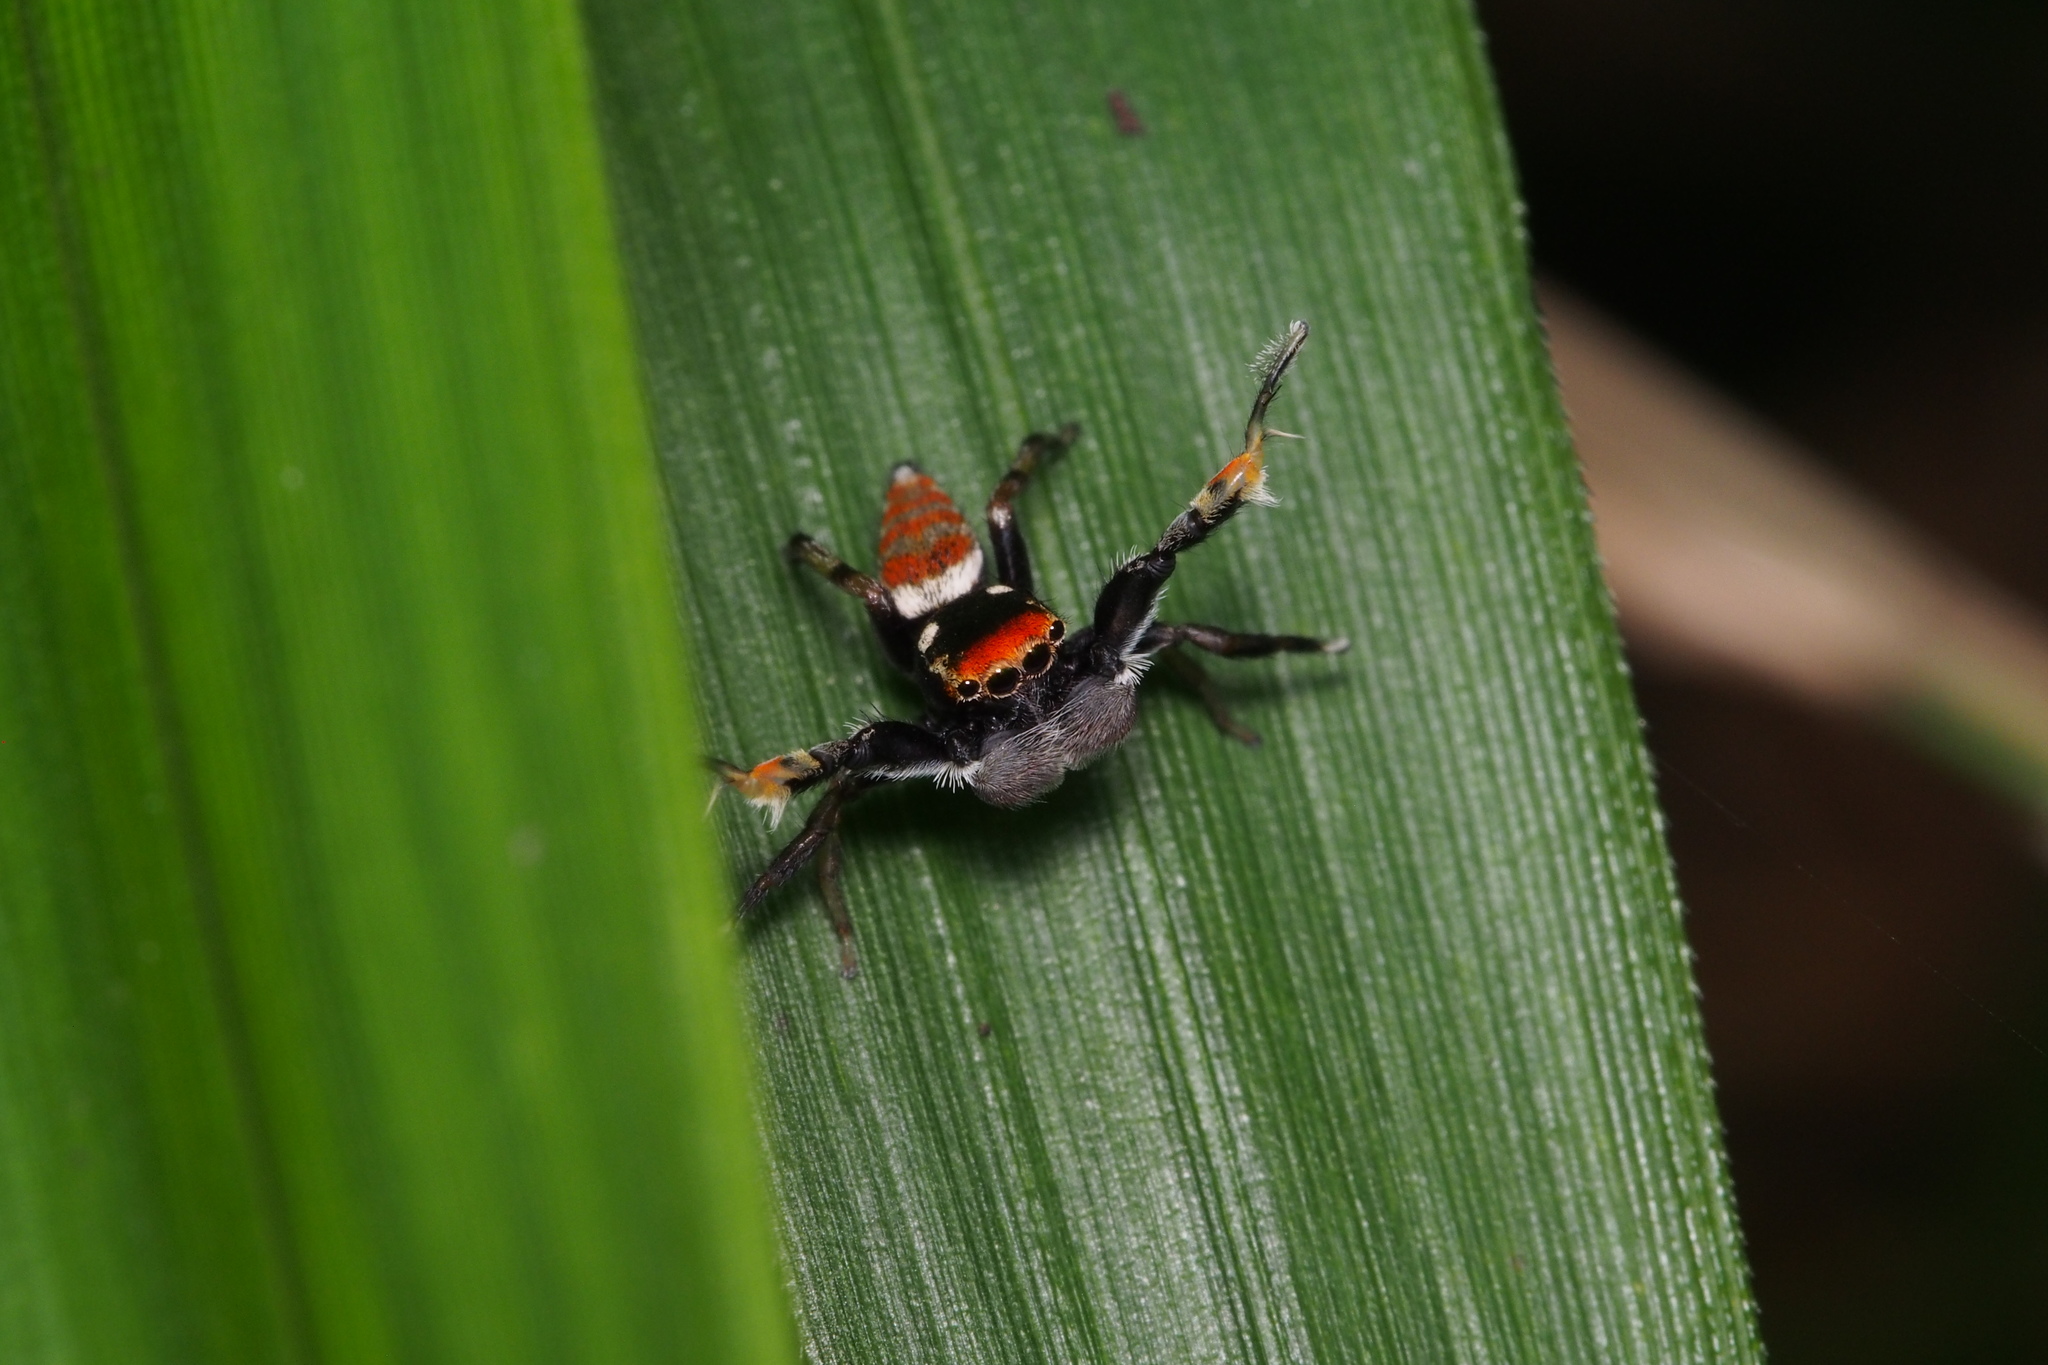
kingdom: Animalia
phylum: Arthropoda
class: Arachnida
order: Araneae
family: Salticidae
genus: Marpissa
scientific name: Marpissa pulla
